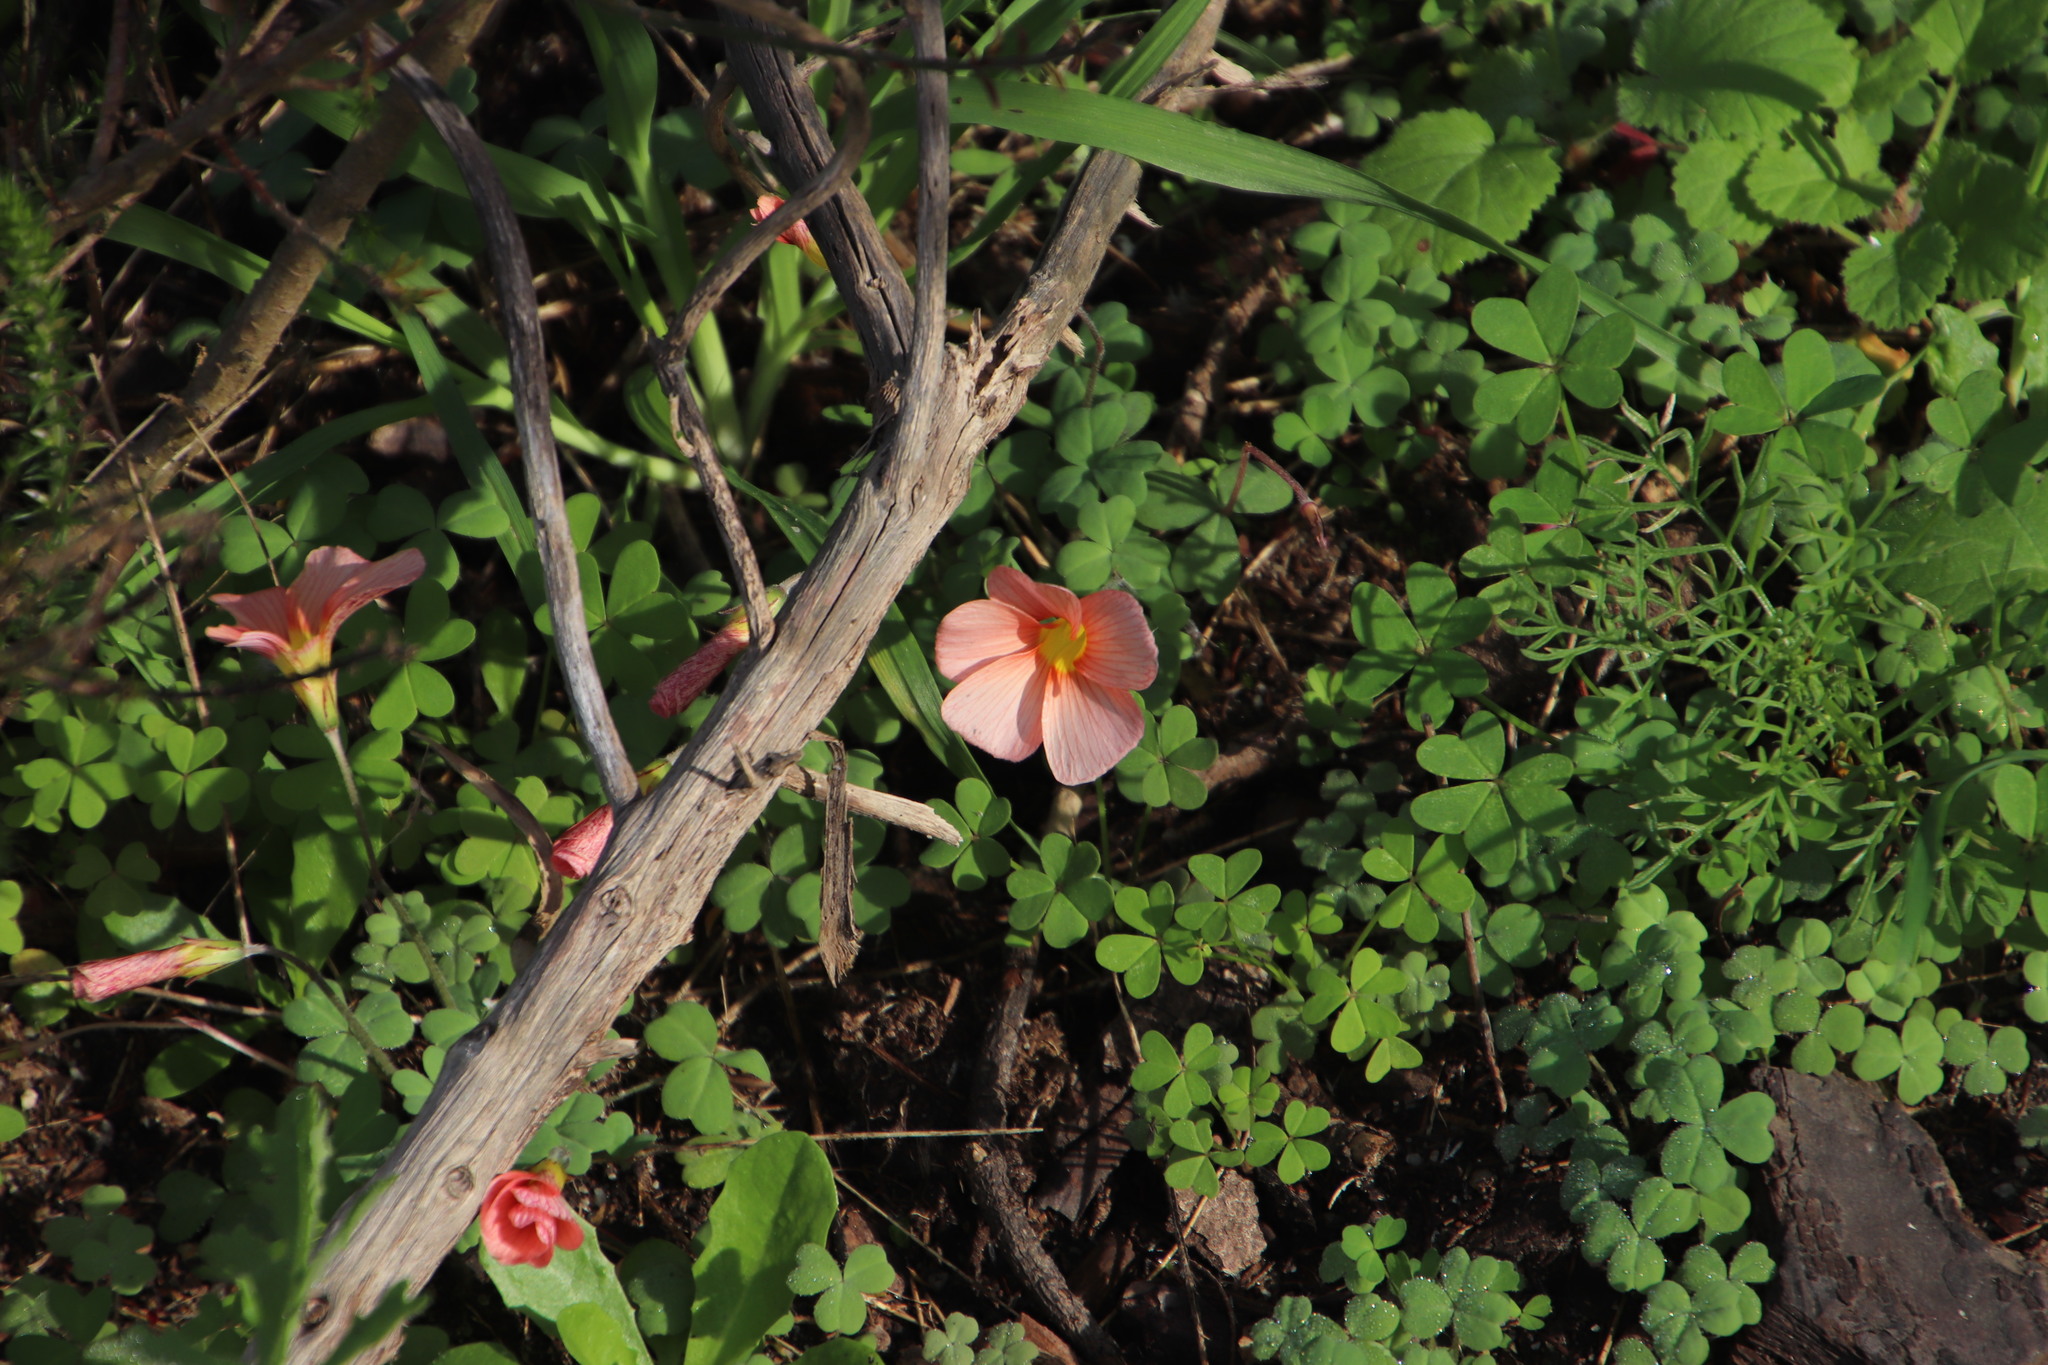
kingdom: Plantae
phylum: Tracheophyta
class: Magnoliopsida
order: Oxalidales
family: Oxalidaceae
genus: Oxalis
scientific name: Oxalis obtusa
